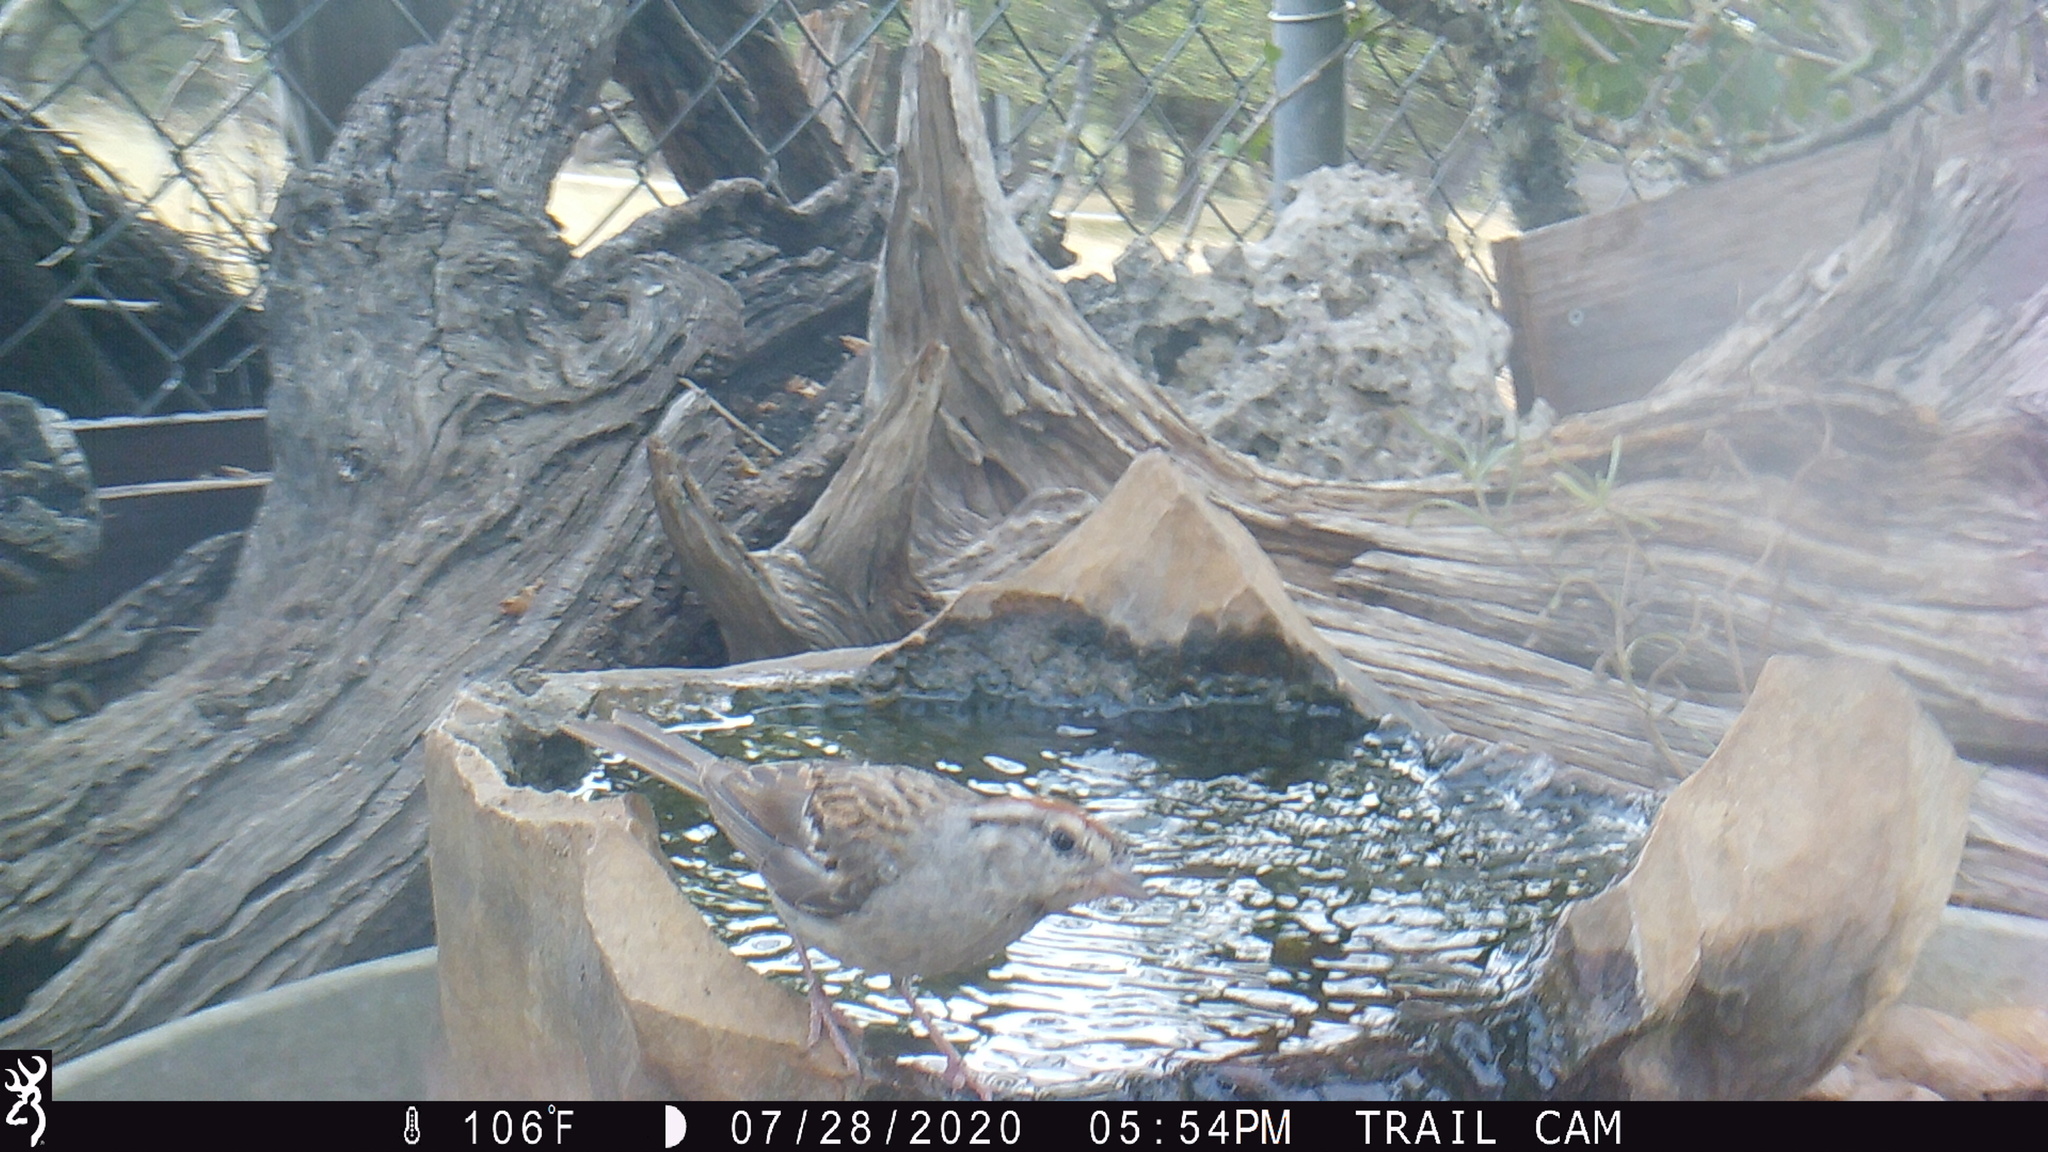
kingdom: Animalia
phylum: Chordata
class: Aves
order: Passeriformes
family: Passerellidae
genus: Spizella
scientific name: Spizella passerina
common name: Chipping sparrow
